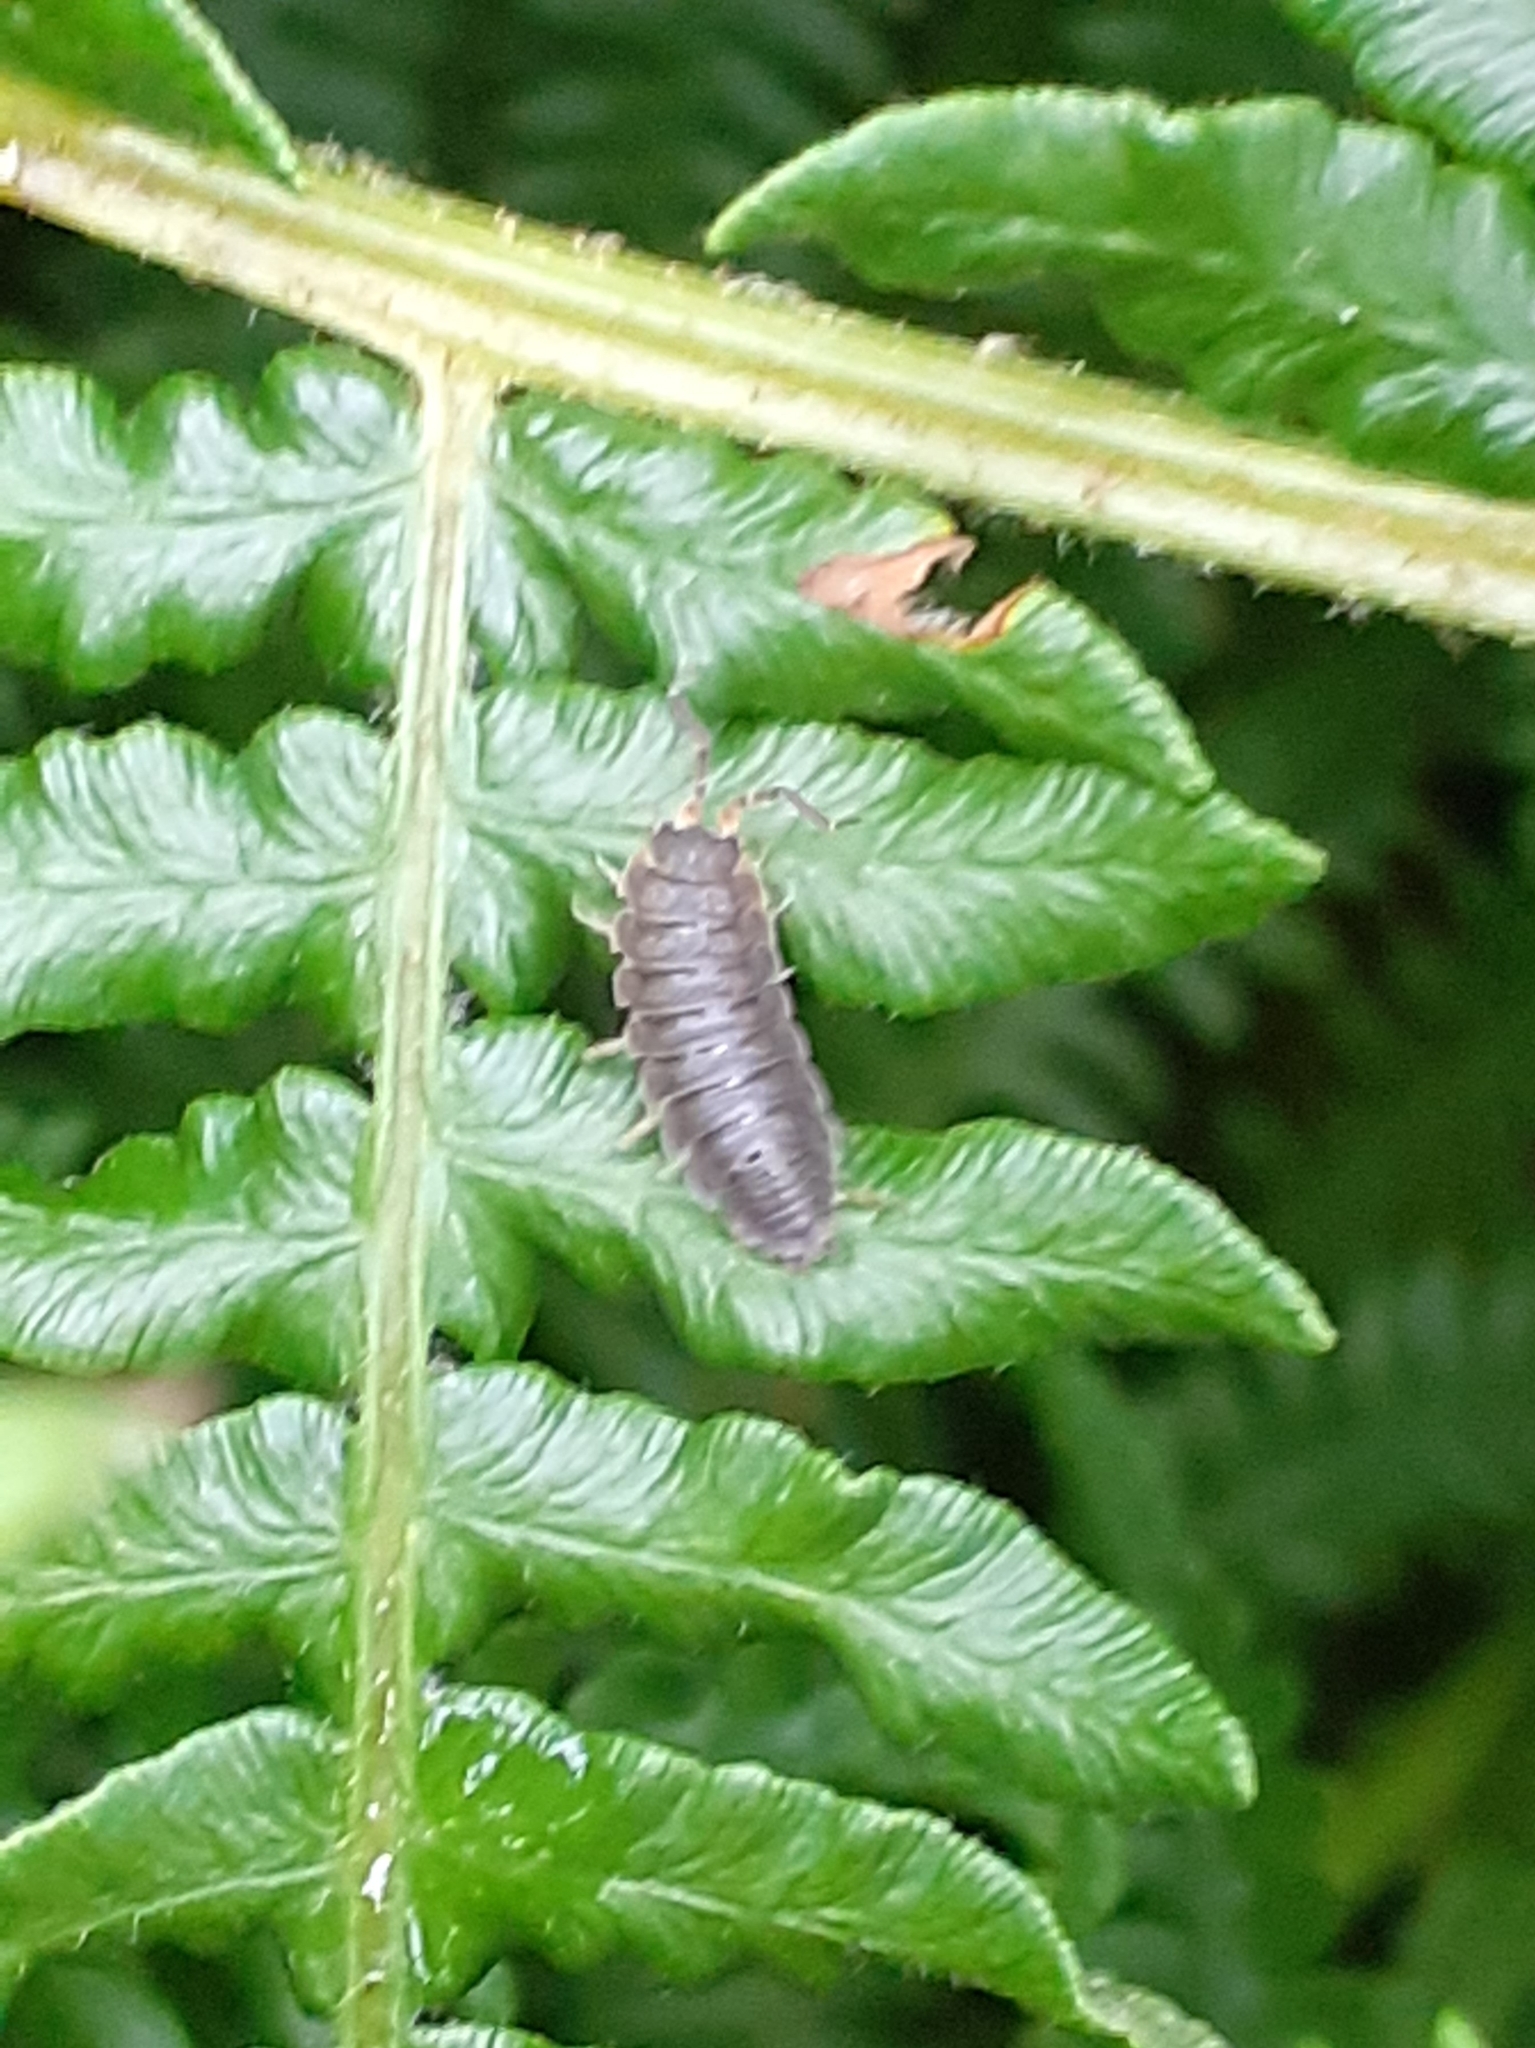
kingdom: Animalia
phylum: Arthropoda
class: Malacostraca
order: Isopoda
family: Porcellionidae
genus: Porcellio
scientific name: Porcellio scaber
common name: Common rough woodlouse
